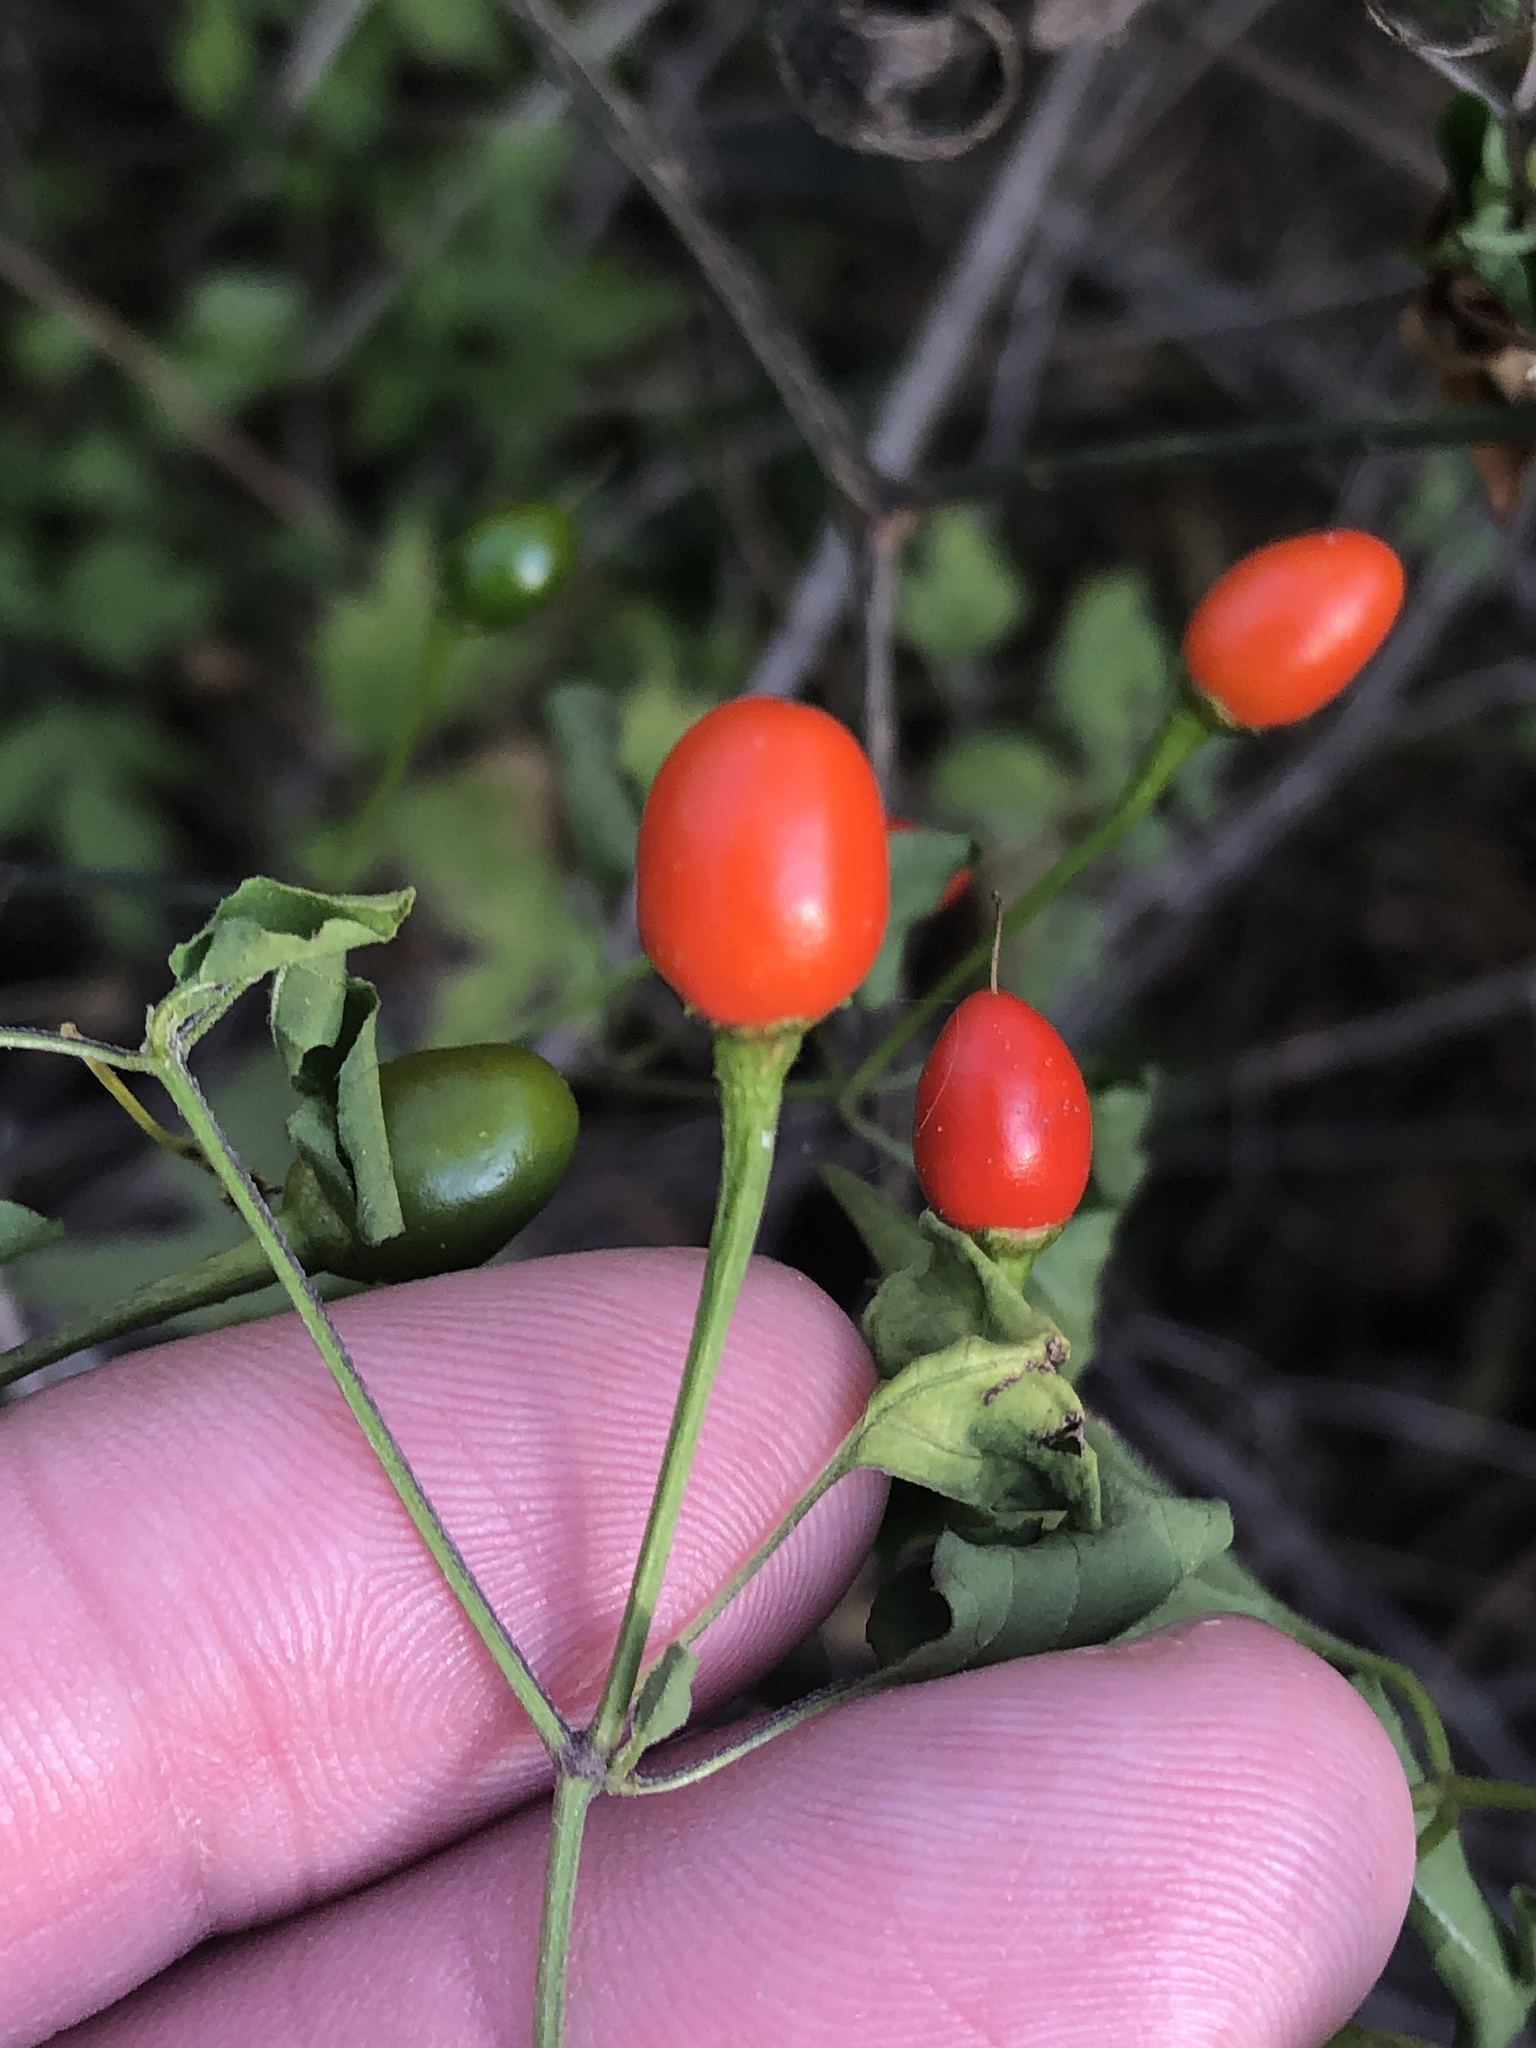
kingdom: Plantae
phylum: Tracheophyta
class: Magnoliopsida
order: Solanales
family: Solanaceae
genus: Capsicum
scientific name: Capsicum annuum
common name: Sweet pepper
